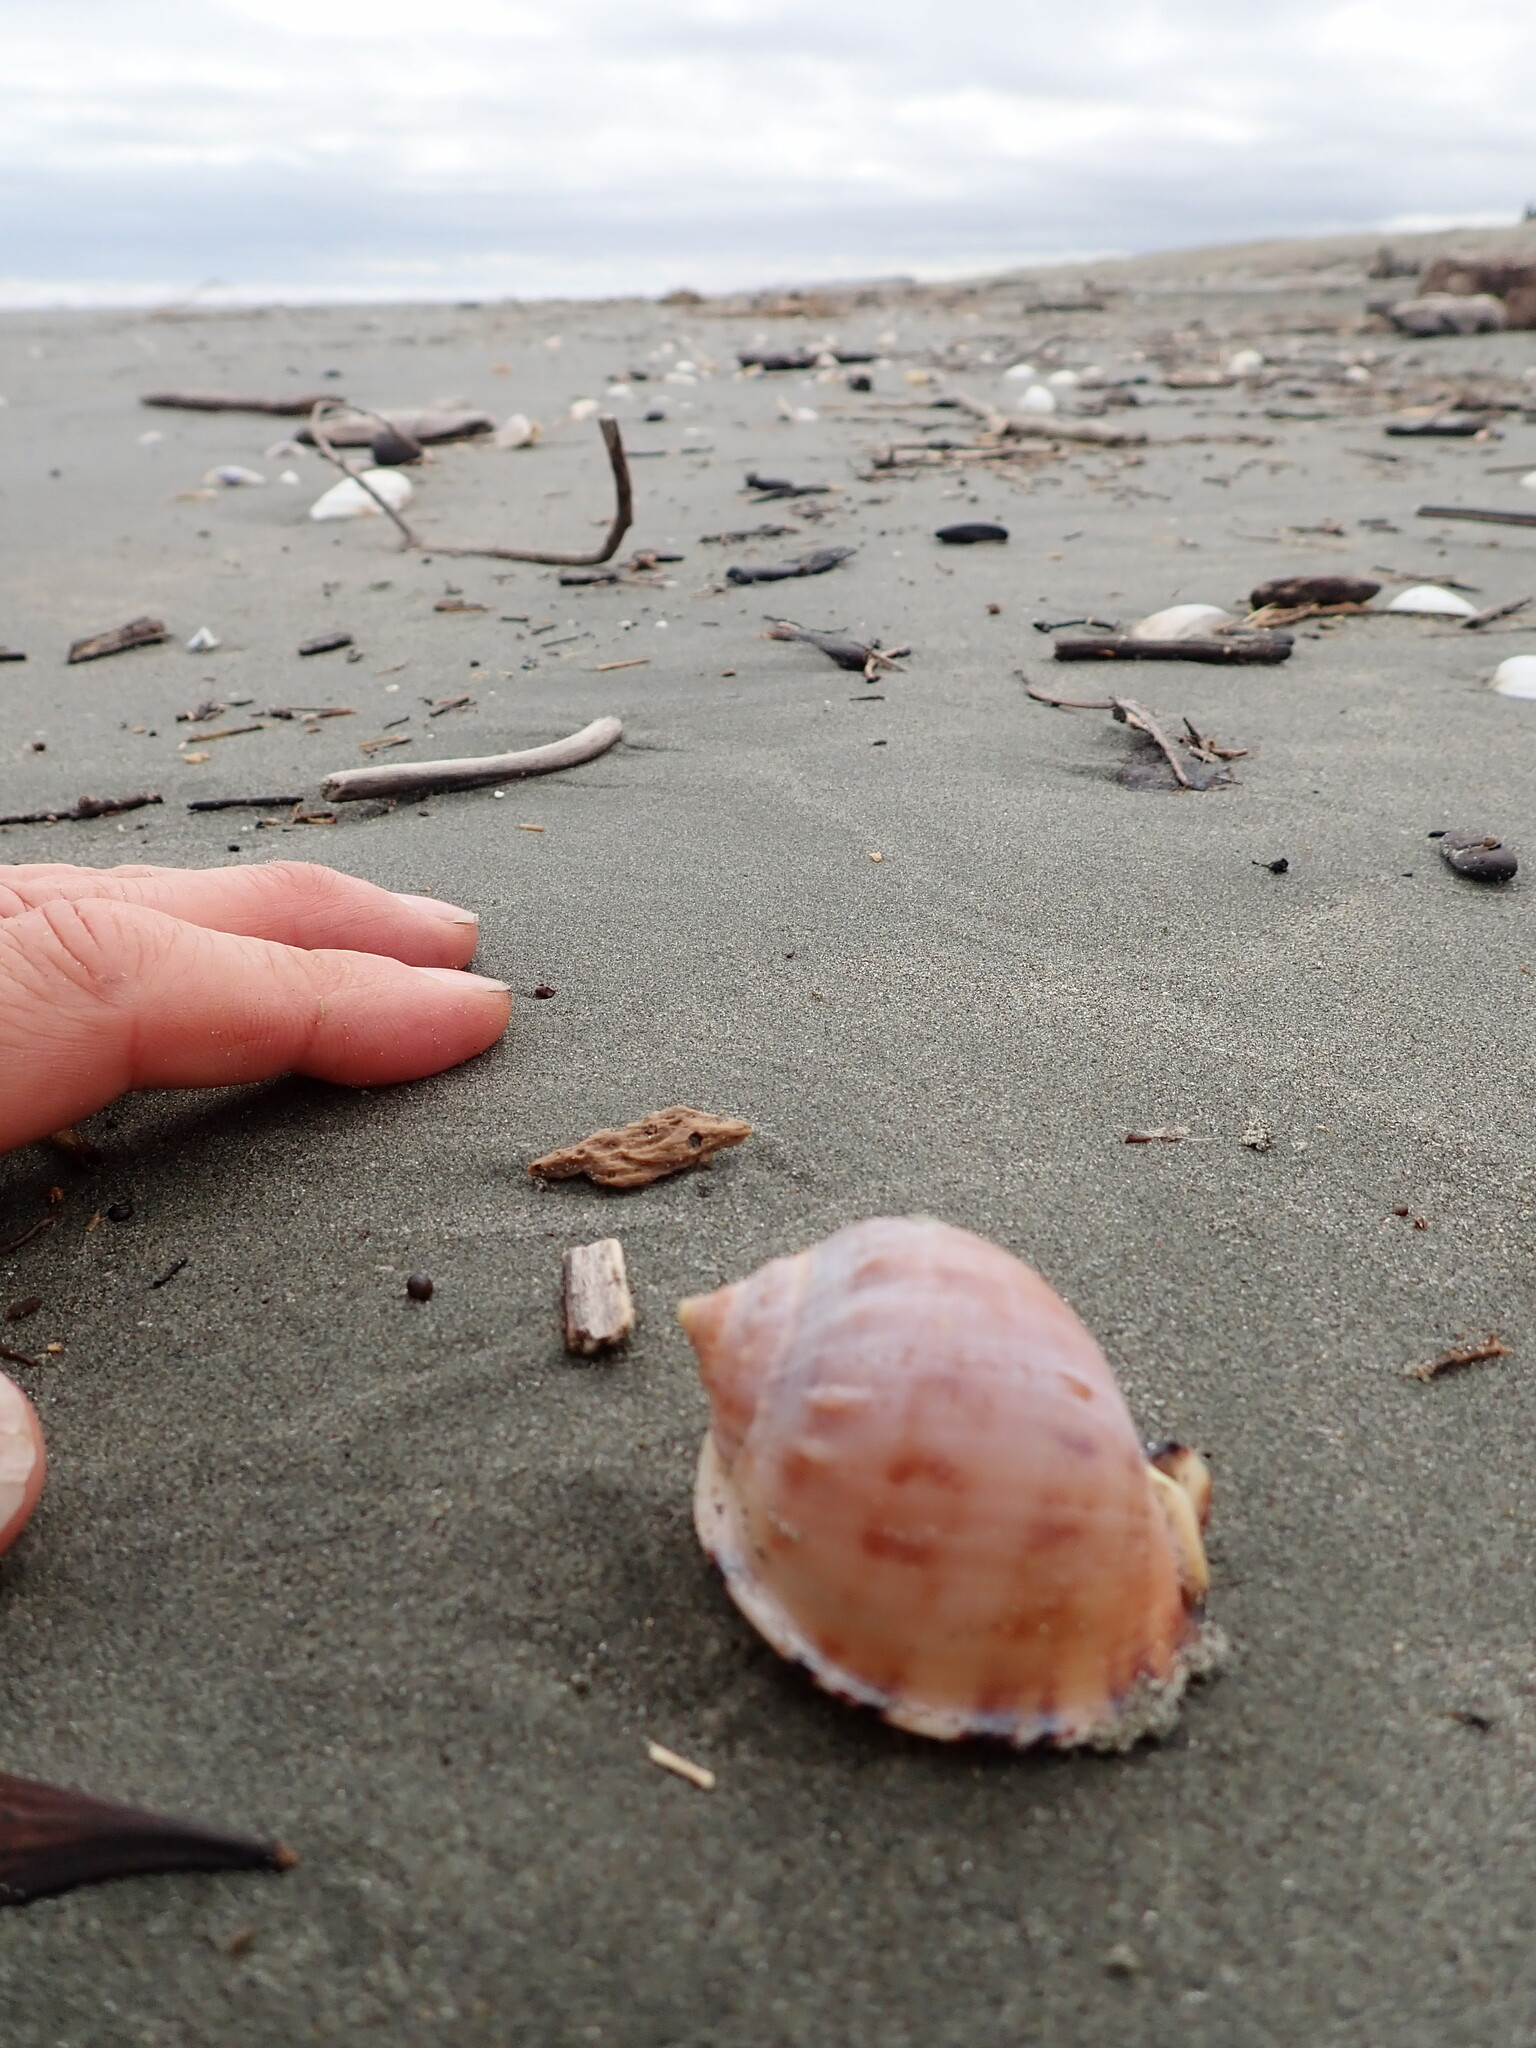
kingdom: Animalia
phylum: Mollusca
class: Gastropoda
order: Littorinimorpha
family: Cassidae
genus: Semicassis
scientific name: Semicassis pyrum
